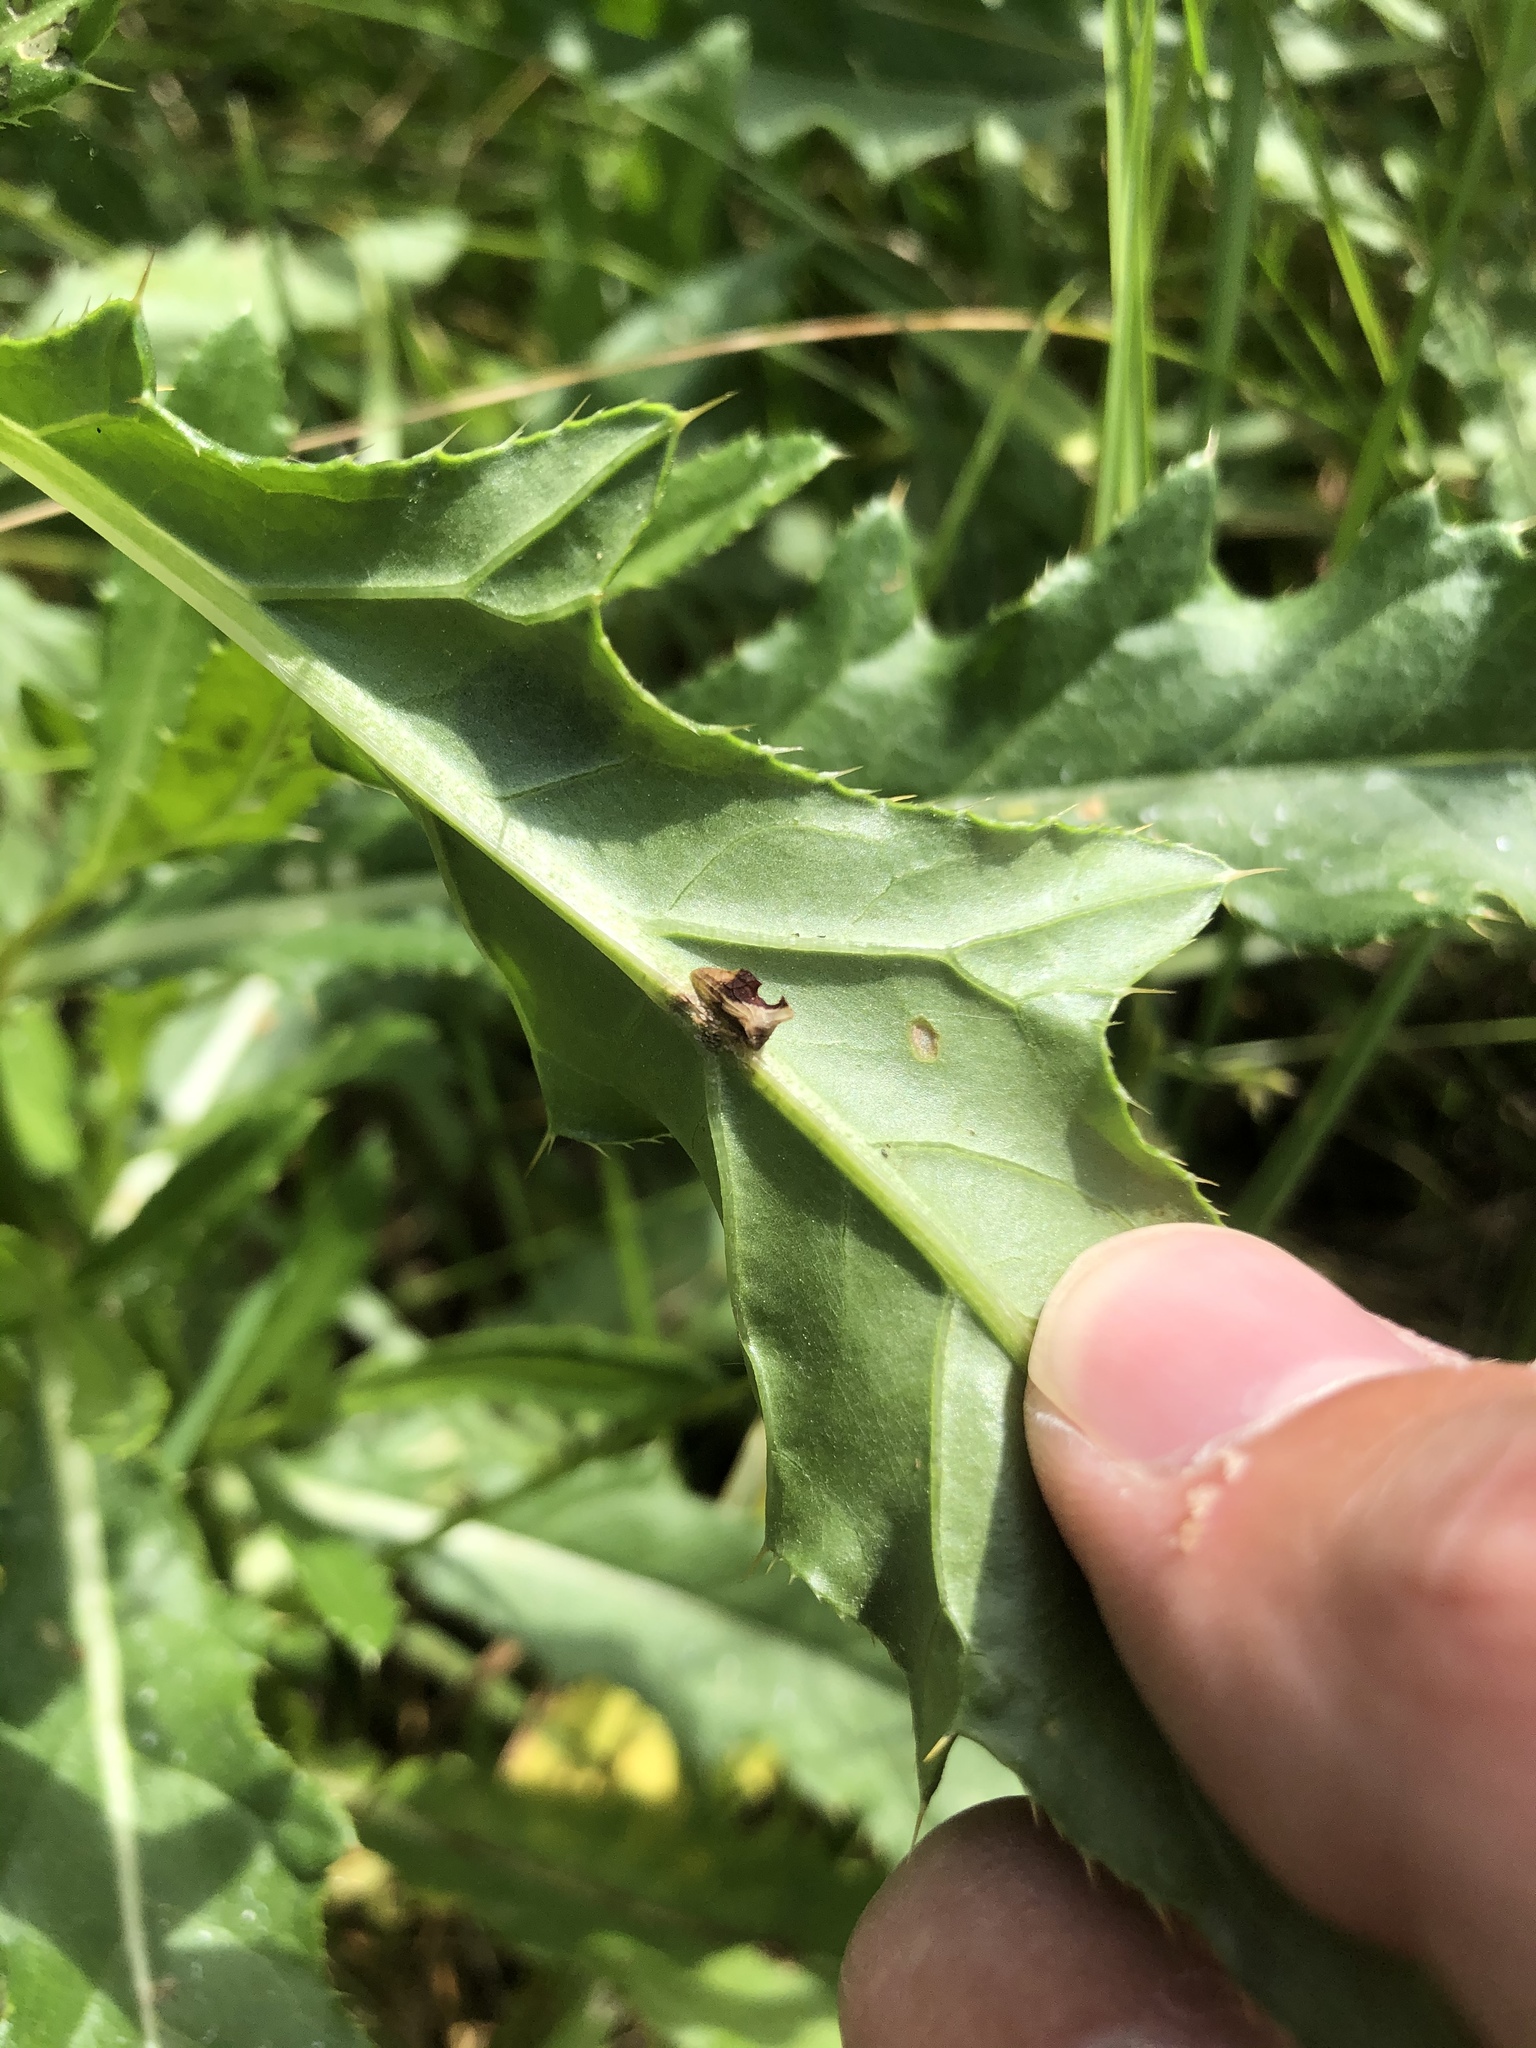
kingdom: Animalia
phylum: Arthropoda
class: Insecta
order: Hemiptera
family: Membracidae
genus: Entylia
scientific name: Entylia carinata
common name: Keeled treehopper
